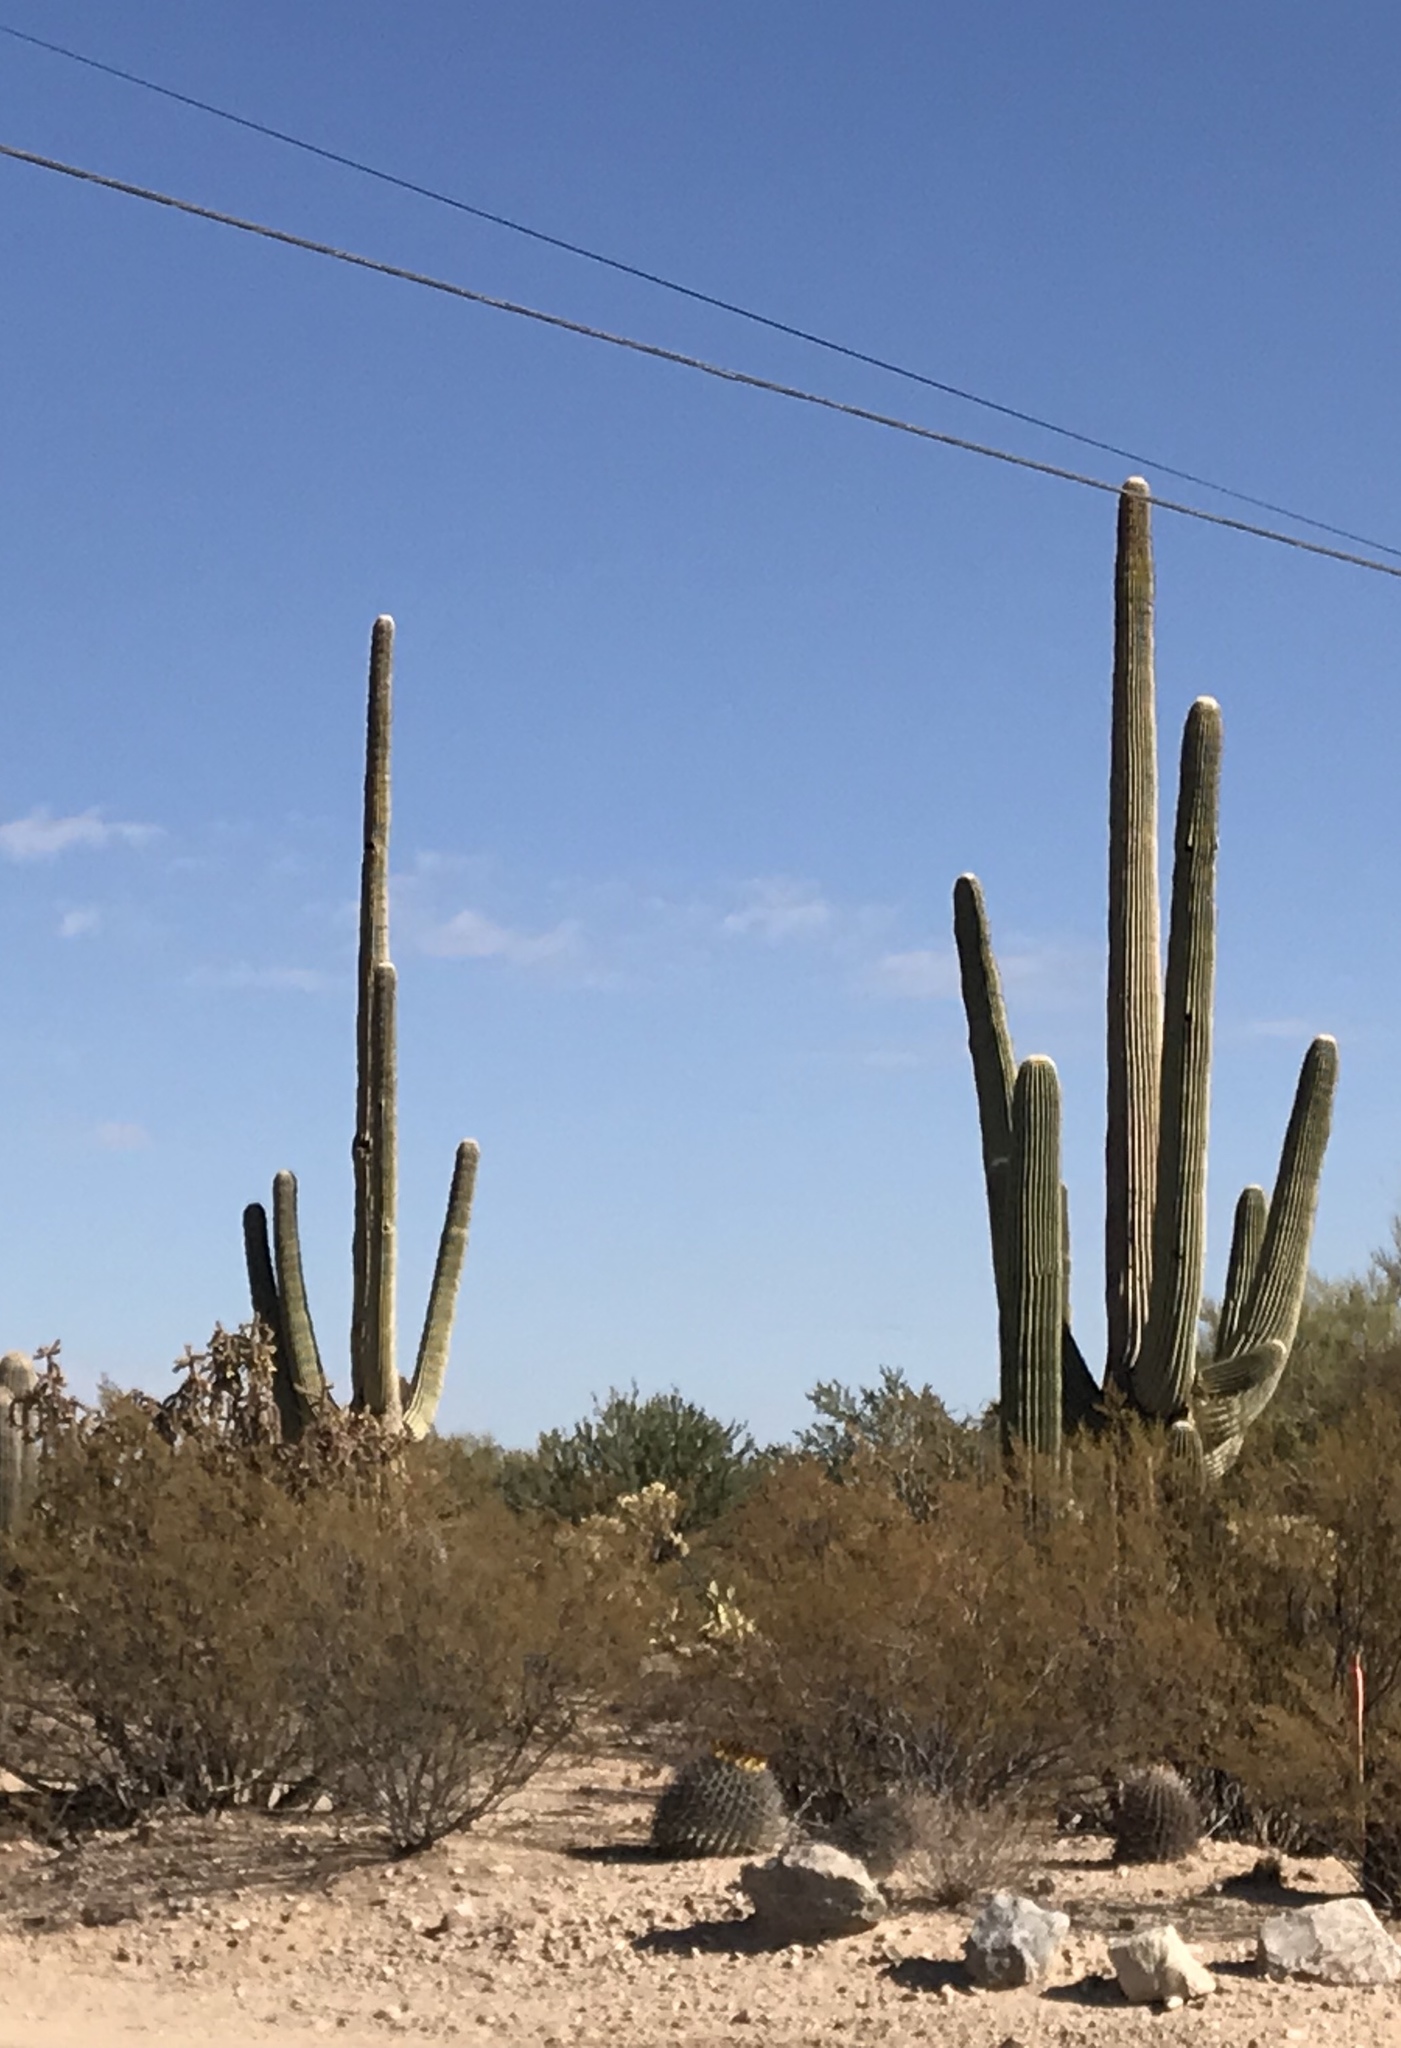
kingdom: Plantae
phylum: Tracheophyta
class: Magnoliopsida
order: Caryophyllales
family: Cactaceae
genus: Carnegiea
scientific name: Carnegiea gigantea
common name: Saguaro
